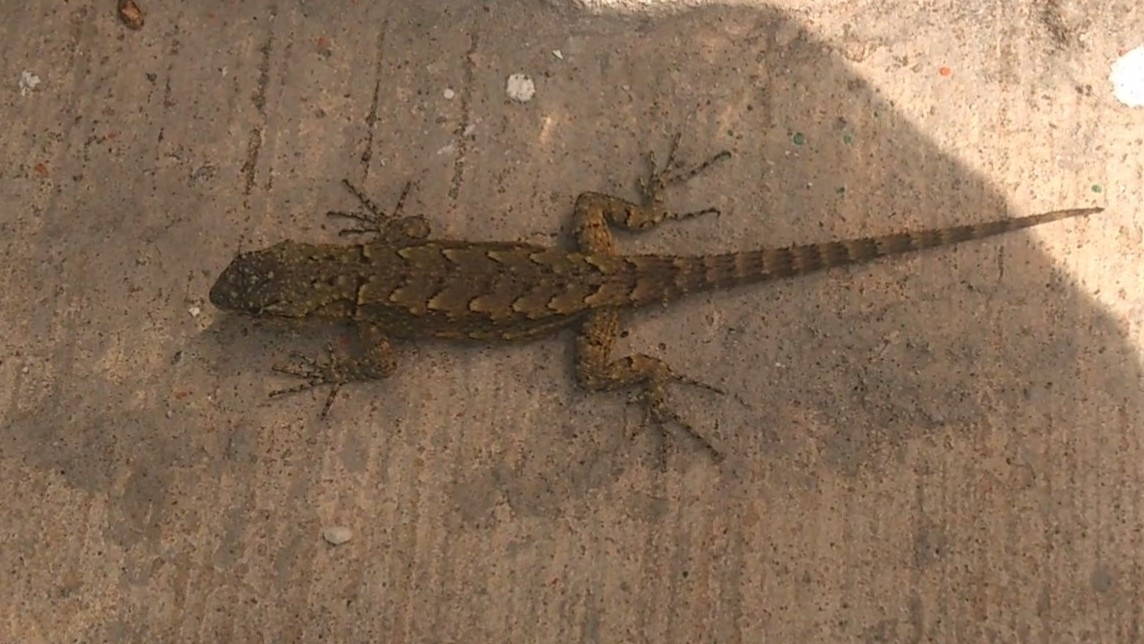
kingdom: Animalia
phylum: Chordata
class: Squamata
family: Phrynosomatidae
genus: Sceloporus
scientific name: Sceloporus grammicus
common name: Mesquite lizard
